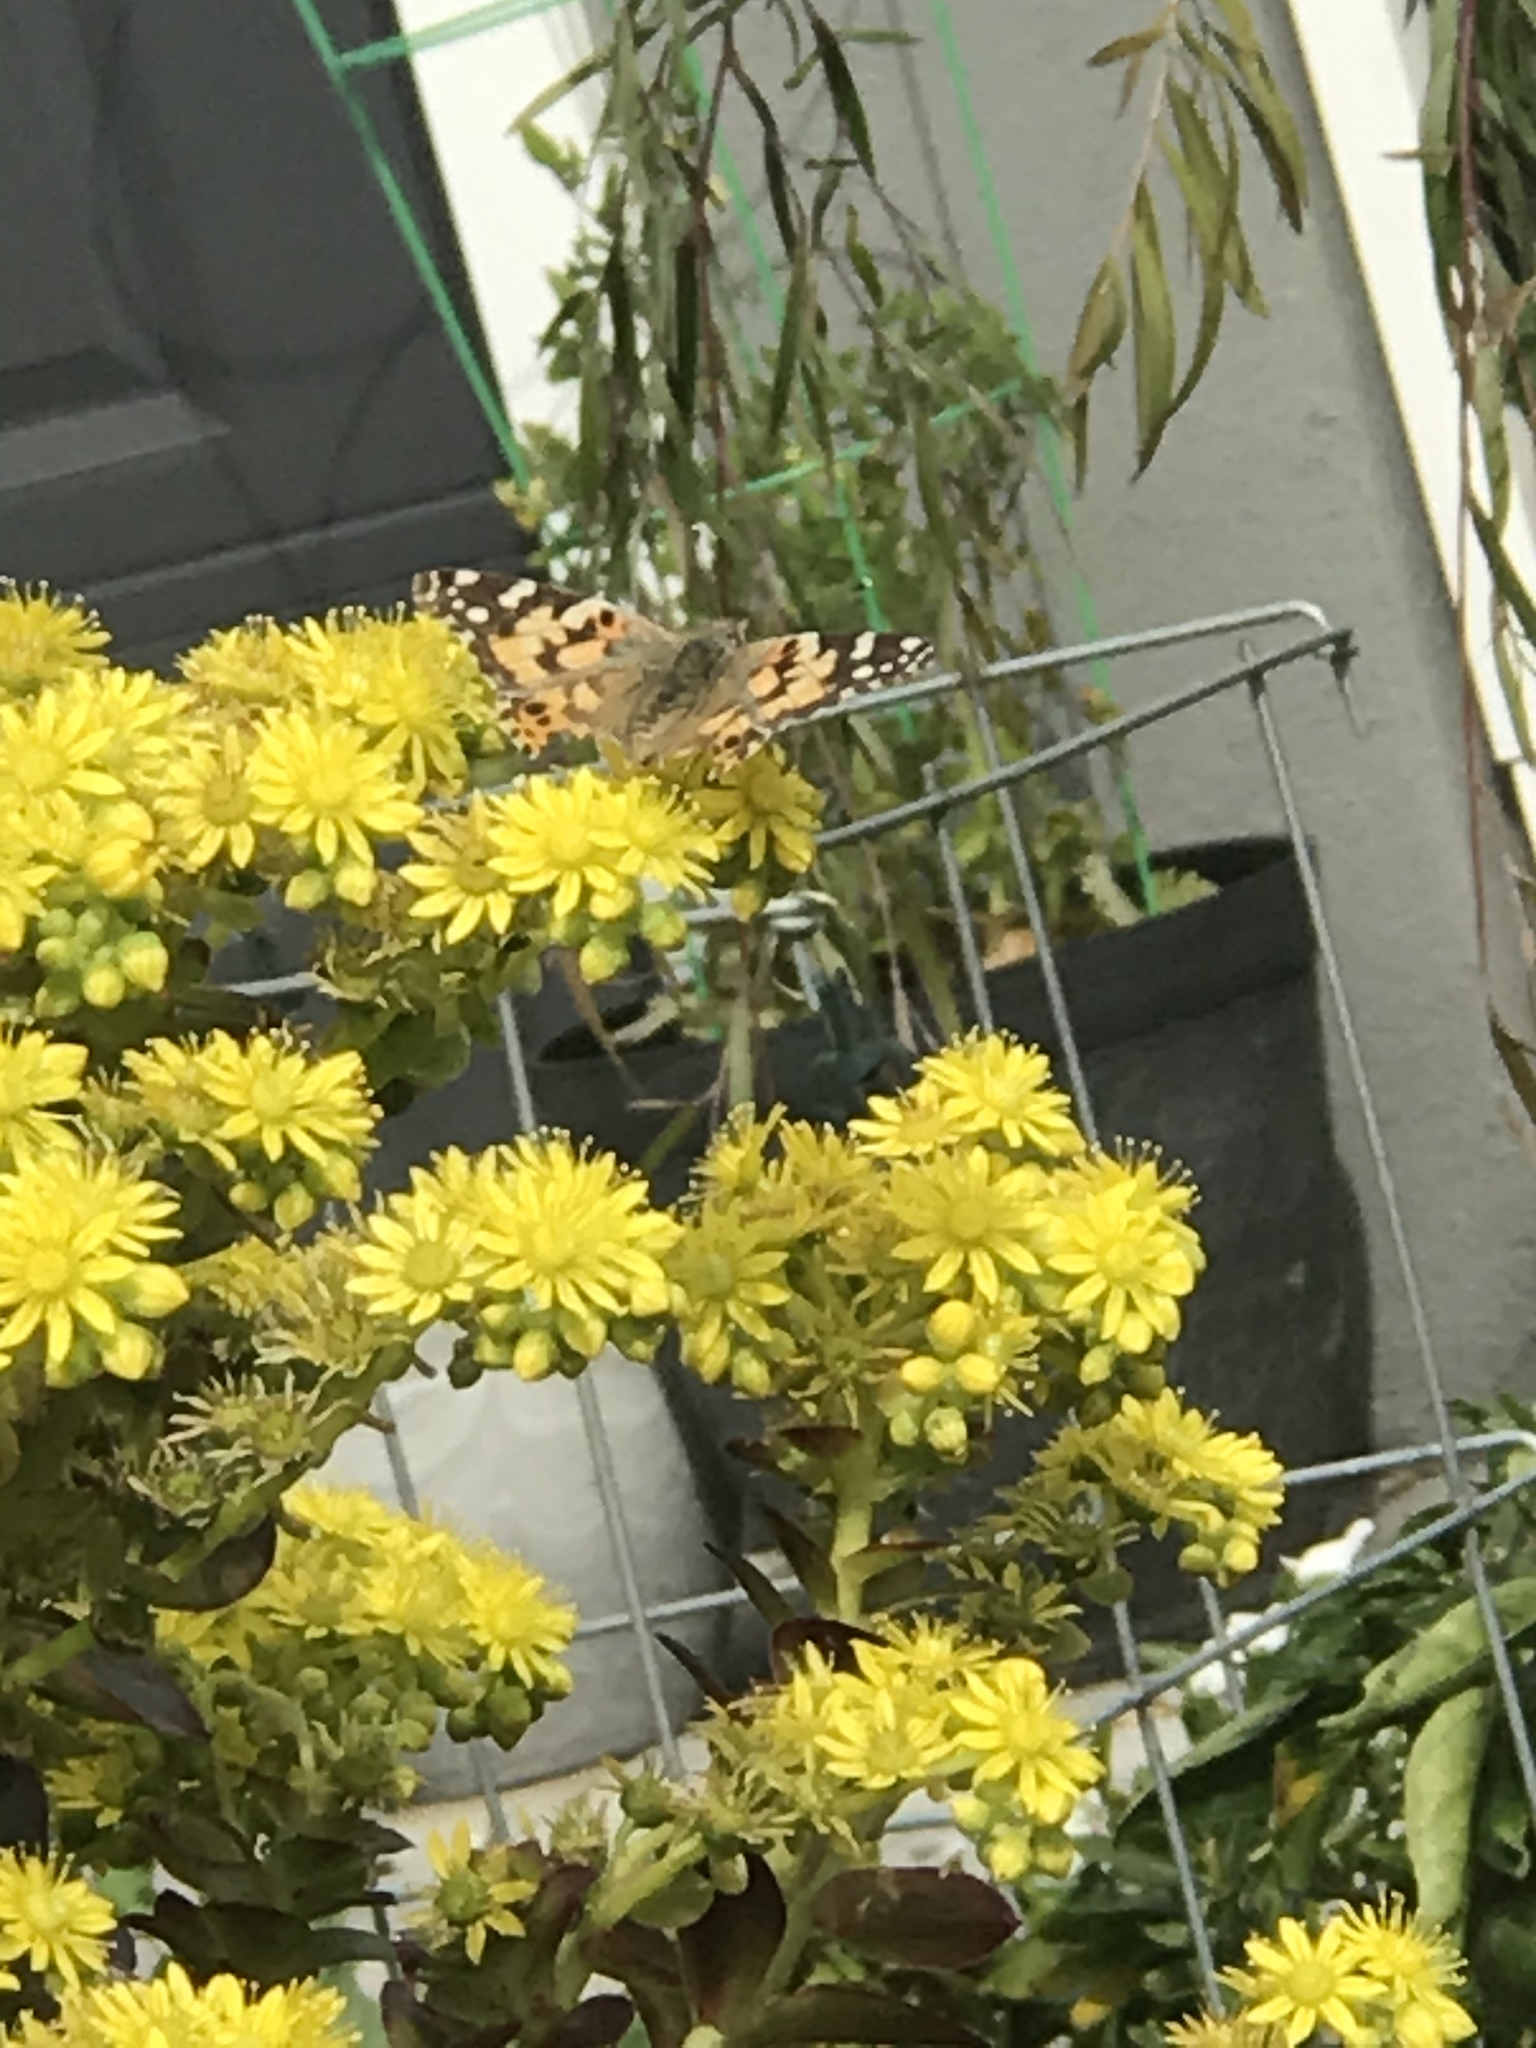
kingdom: Animalia
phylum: Arthropoda
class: Insecta
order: Lepidoptera
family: Nymphalidae
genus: Vanessa
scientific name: Vanessa cardui
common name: Painted lady
